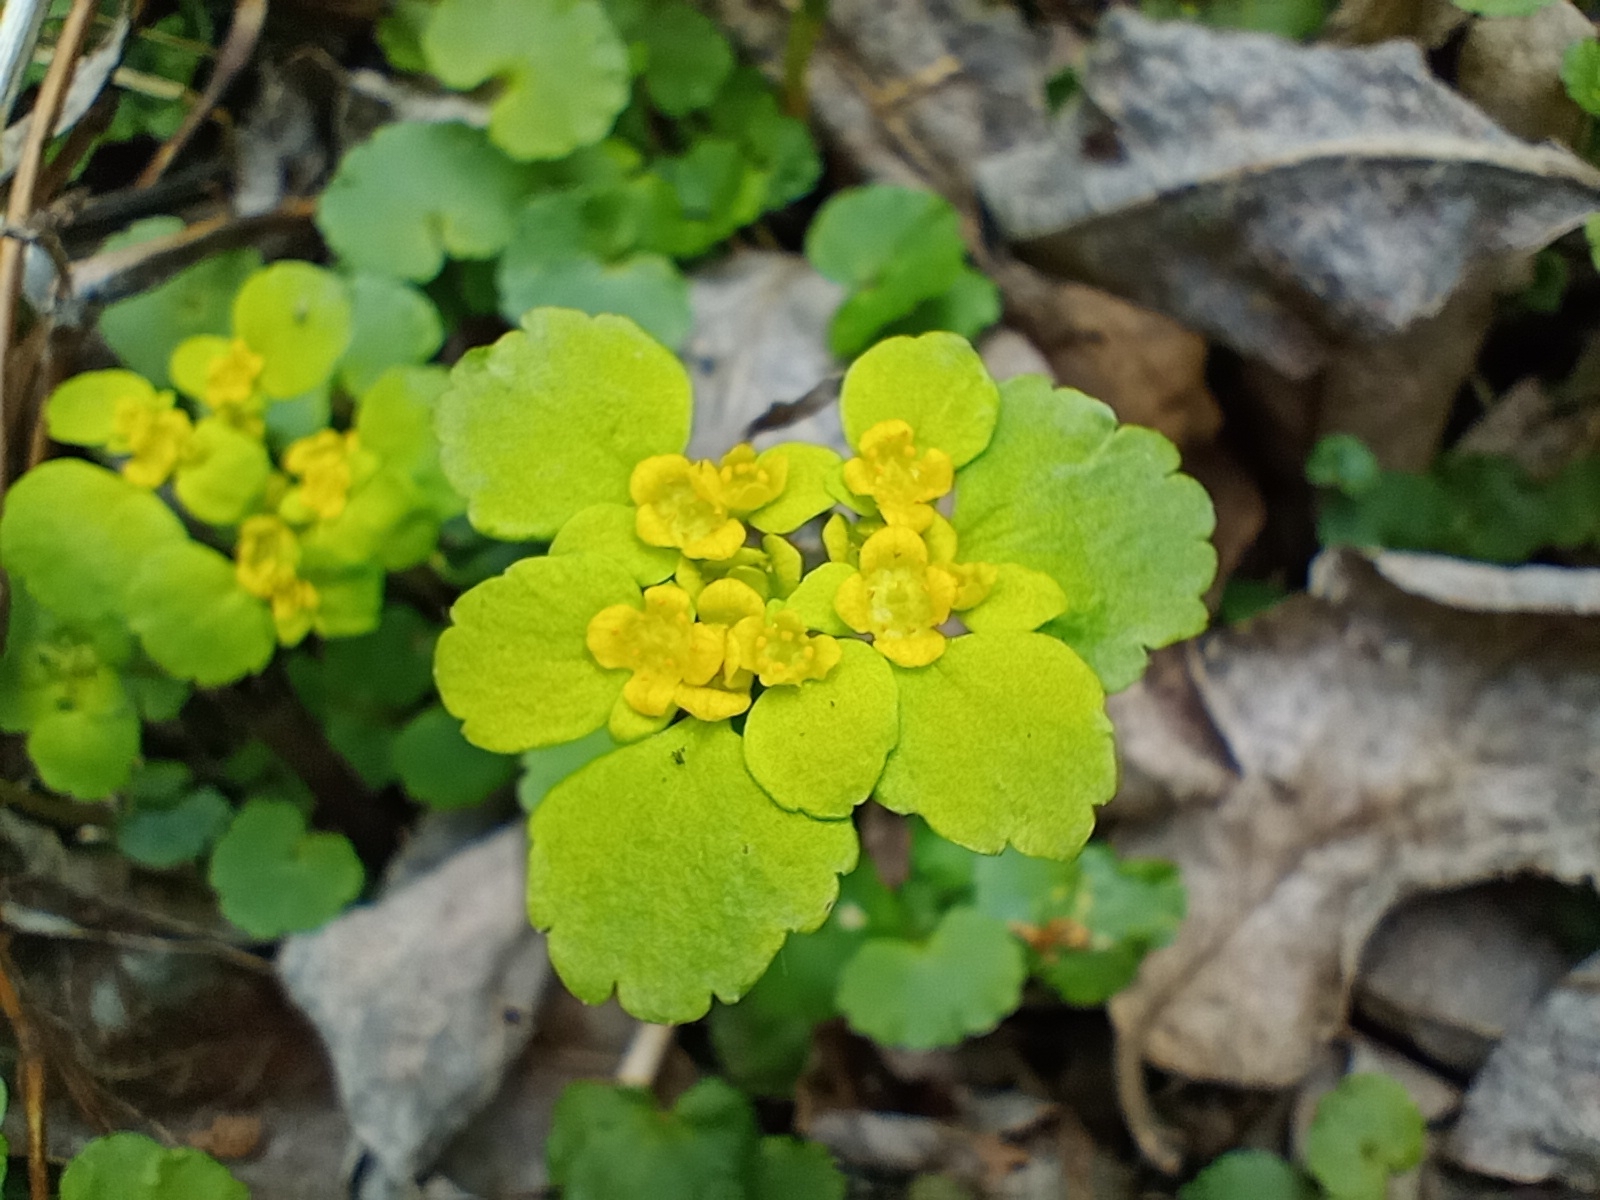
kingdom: Plantae
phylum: Tracheophyta
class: Magnoliopsida
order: Saxifragales
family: Saxifragaceae
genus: Chrysosplenium
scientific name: Chrysosplenium alternifolium
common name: Alternate-leaved golden-saxifrage
